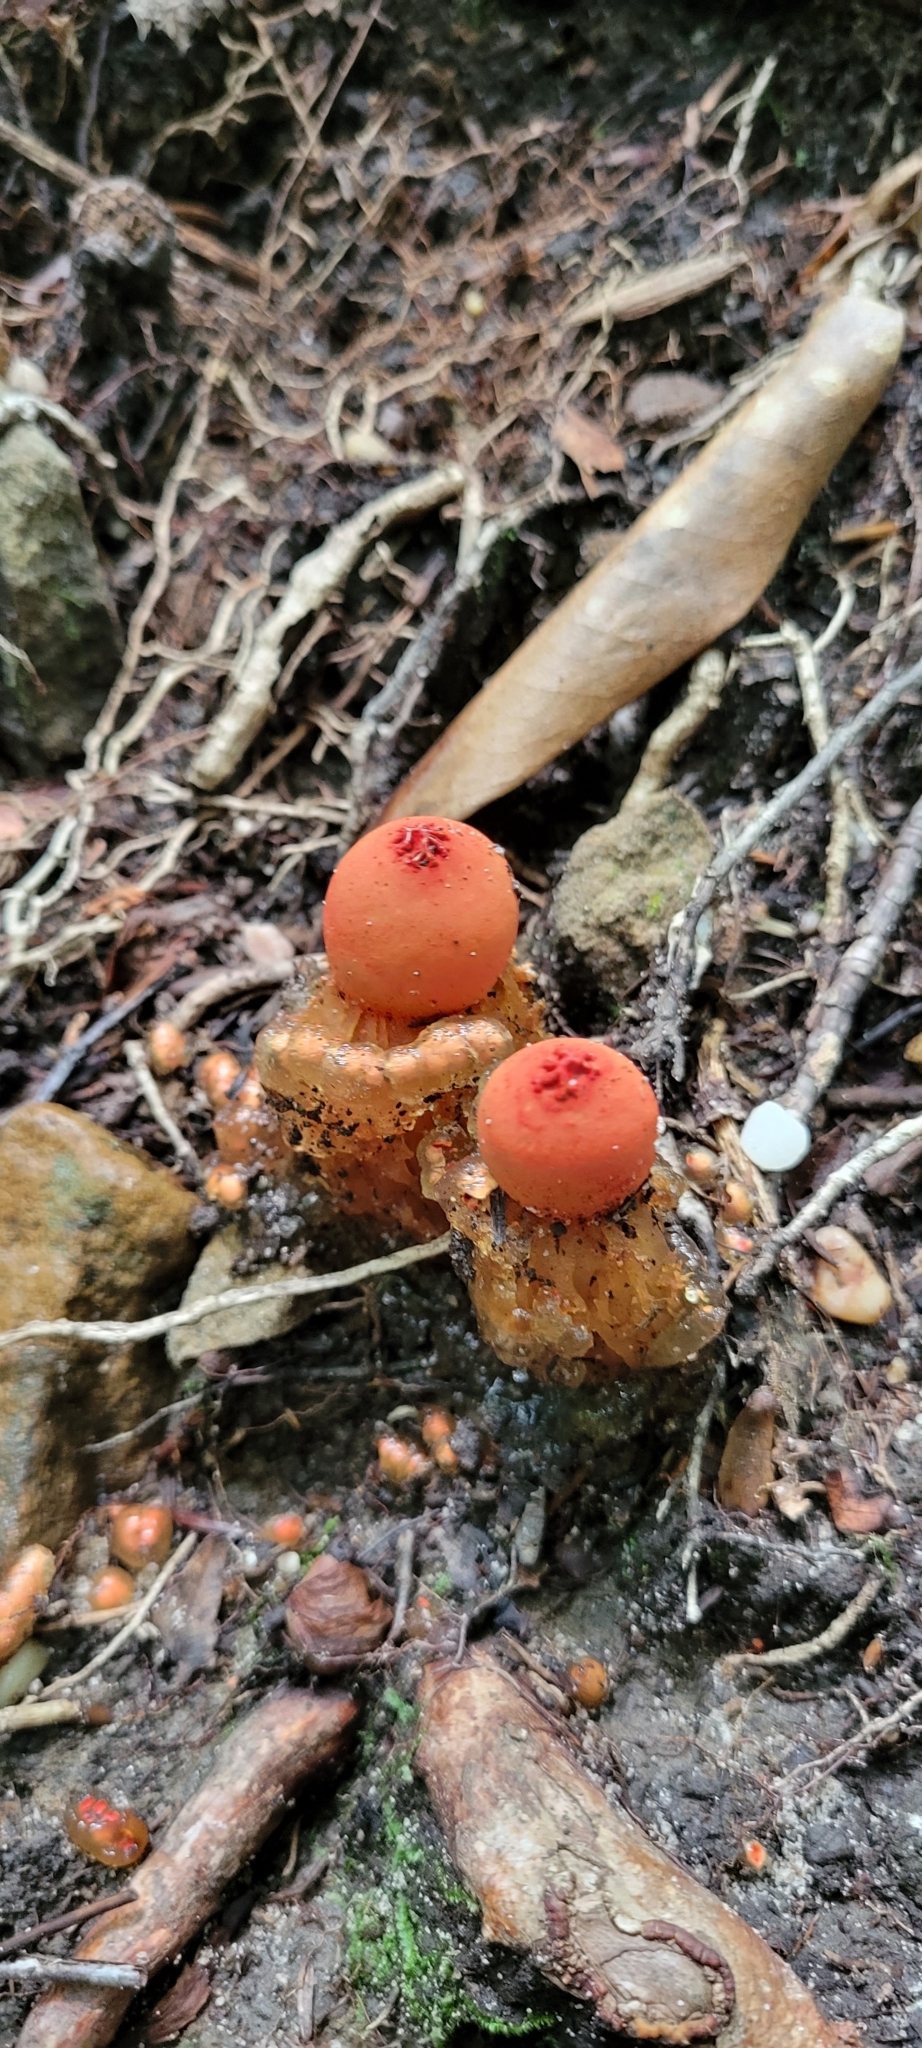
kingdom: Fungi
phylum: Basidiomycota
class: Agaricomycetes
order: Boletales
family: Calostomataceae
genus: Calostoma
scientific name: Calostoma cinnabarinum
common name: Stalked puffball-in-aspic
